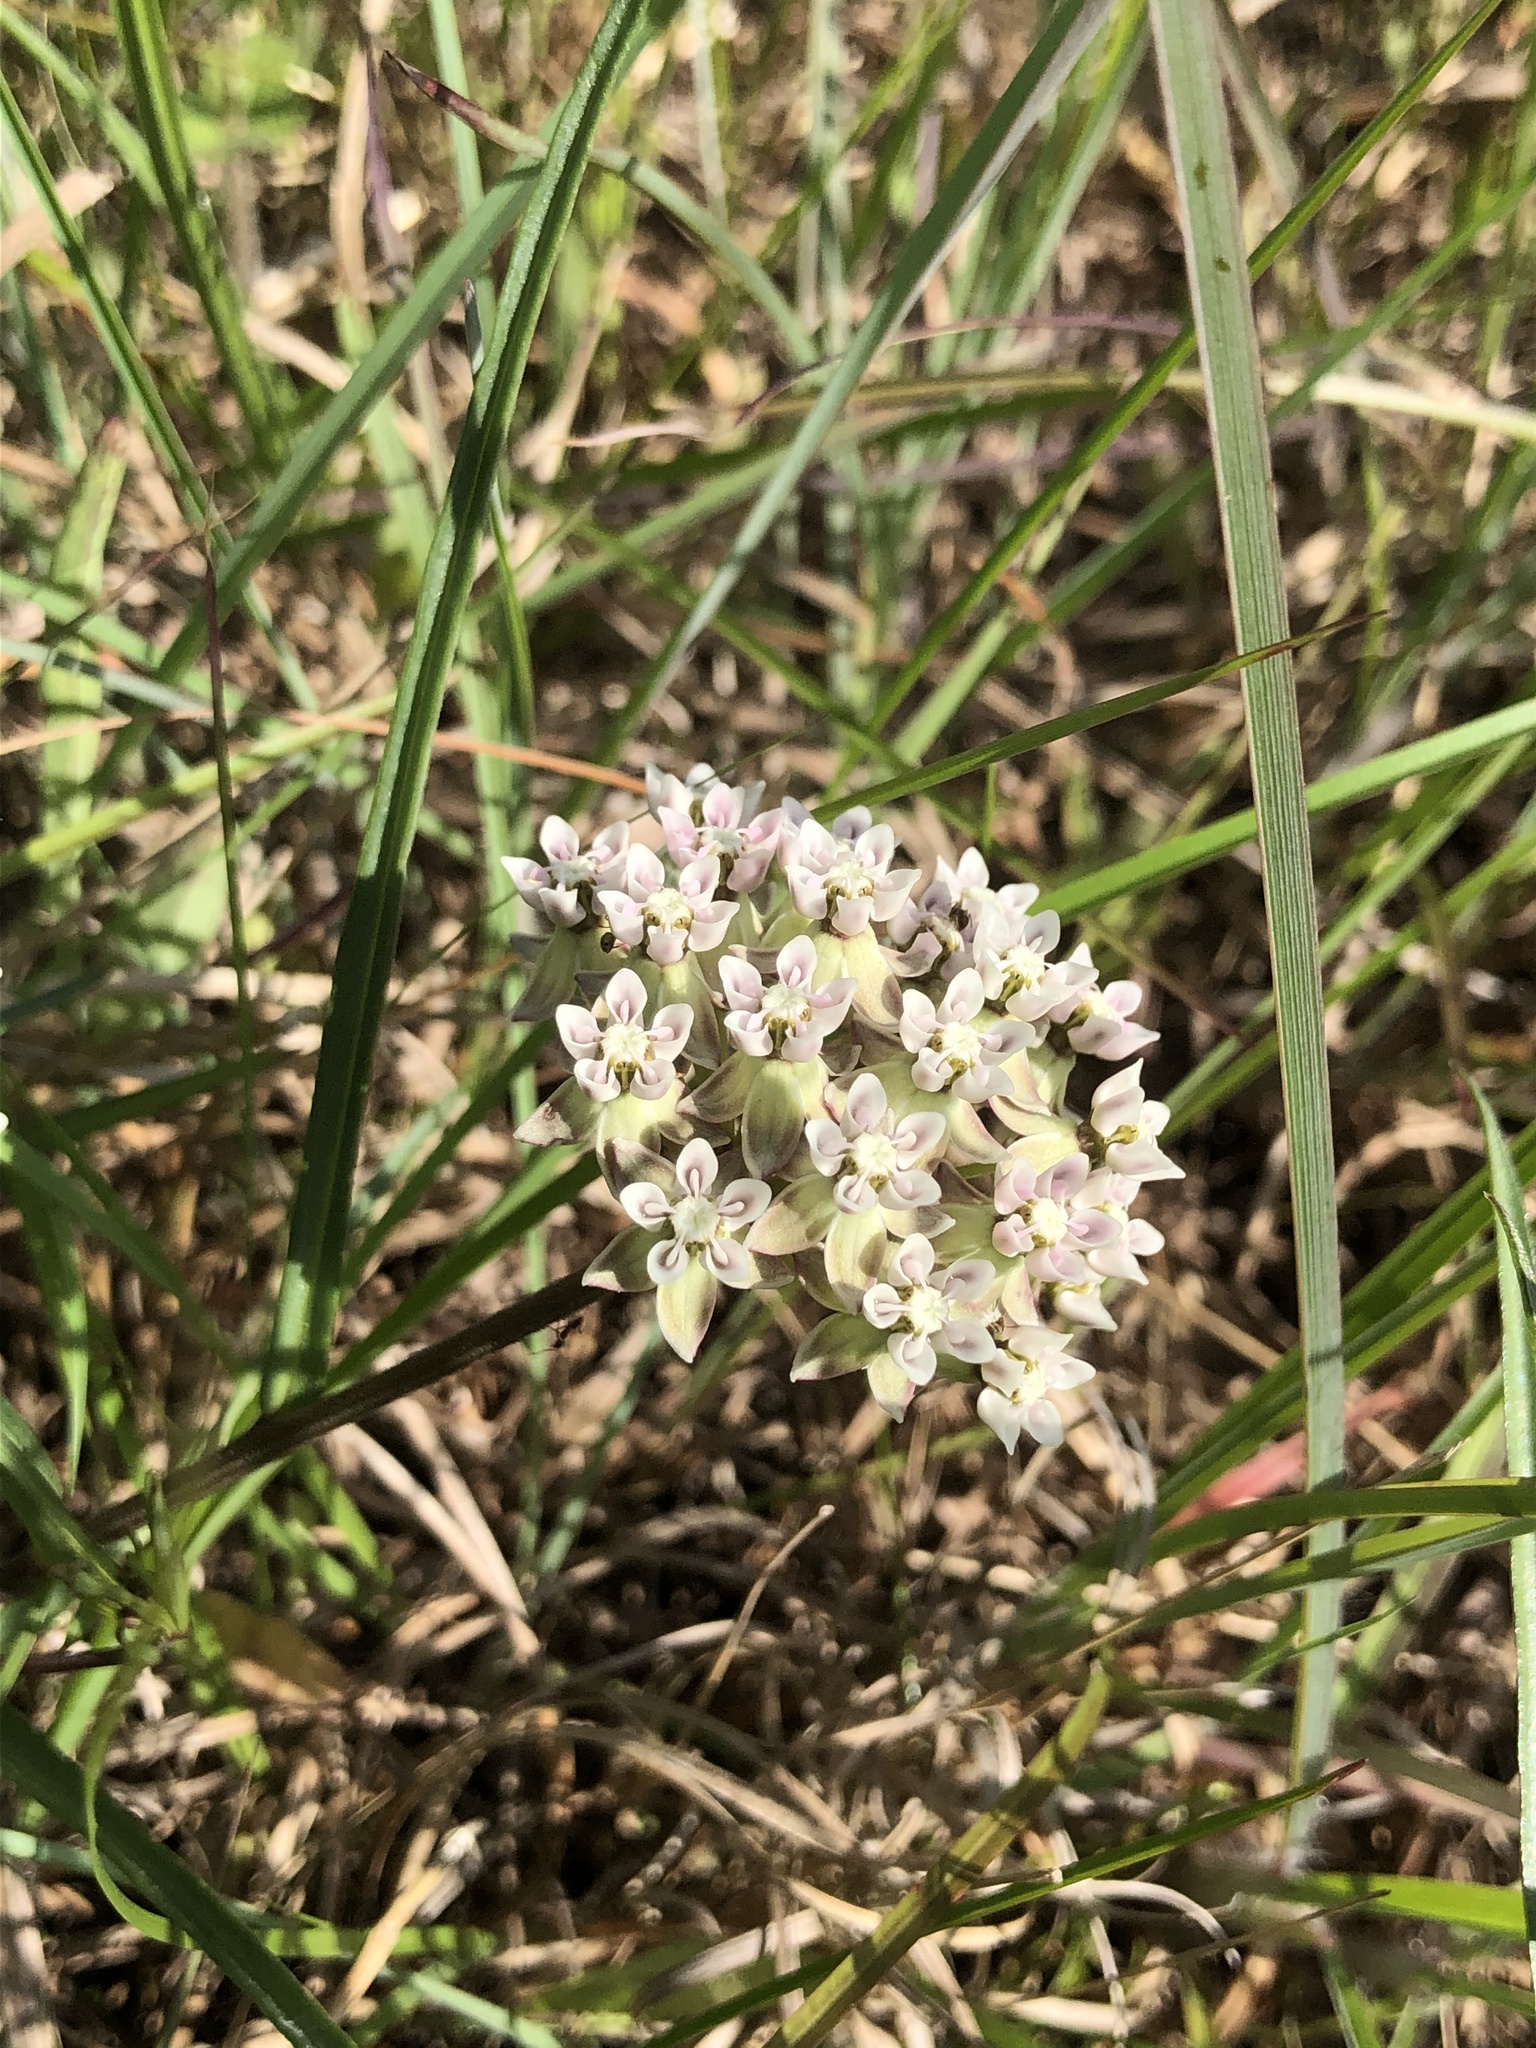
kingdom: Plantae
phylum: Tracheophyta
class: Magnoliopsida
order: Gentianales
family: Apocynaceae
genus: Asclepias
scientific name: Asclepias michauxii
